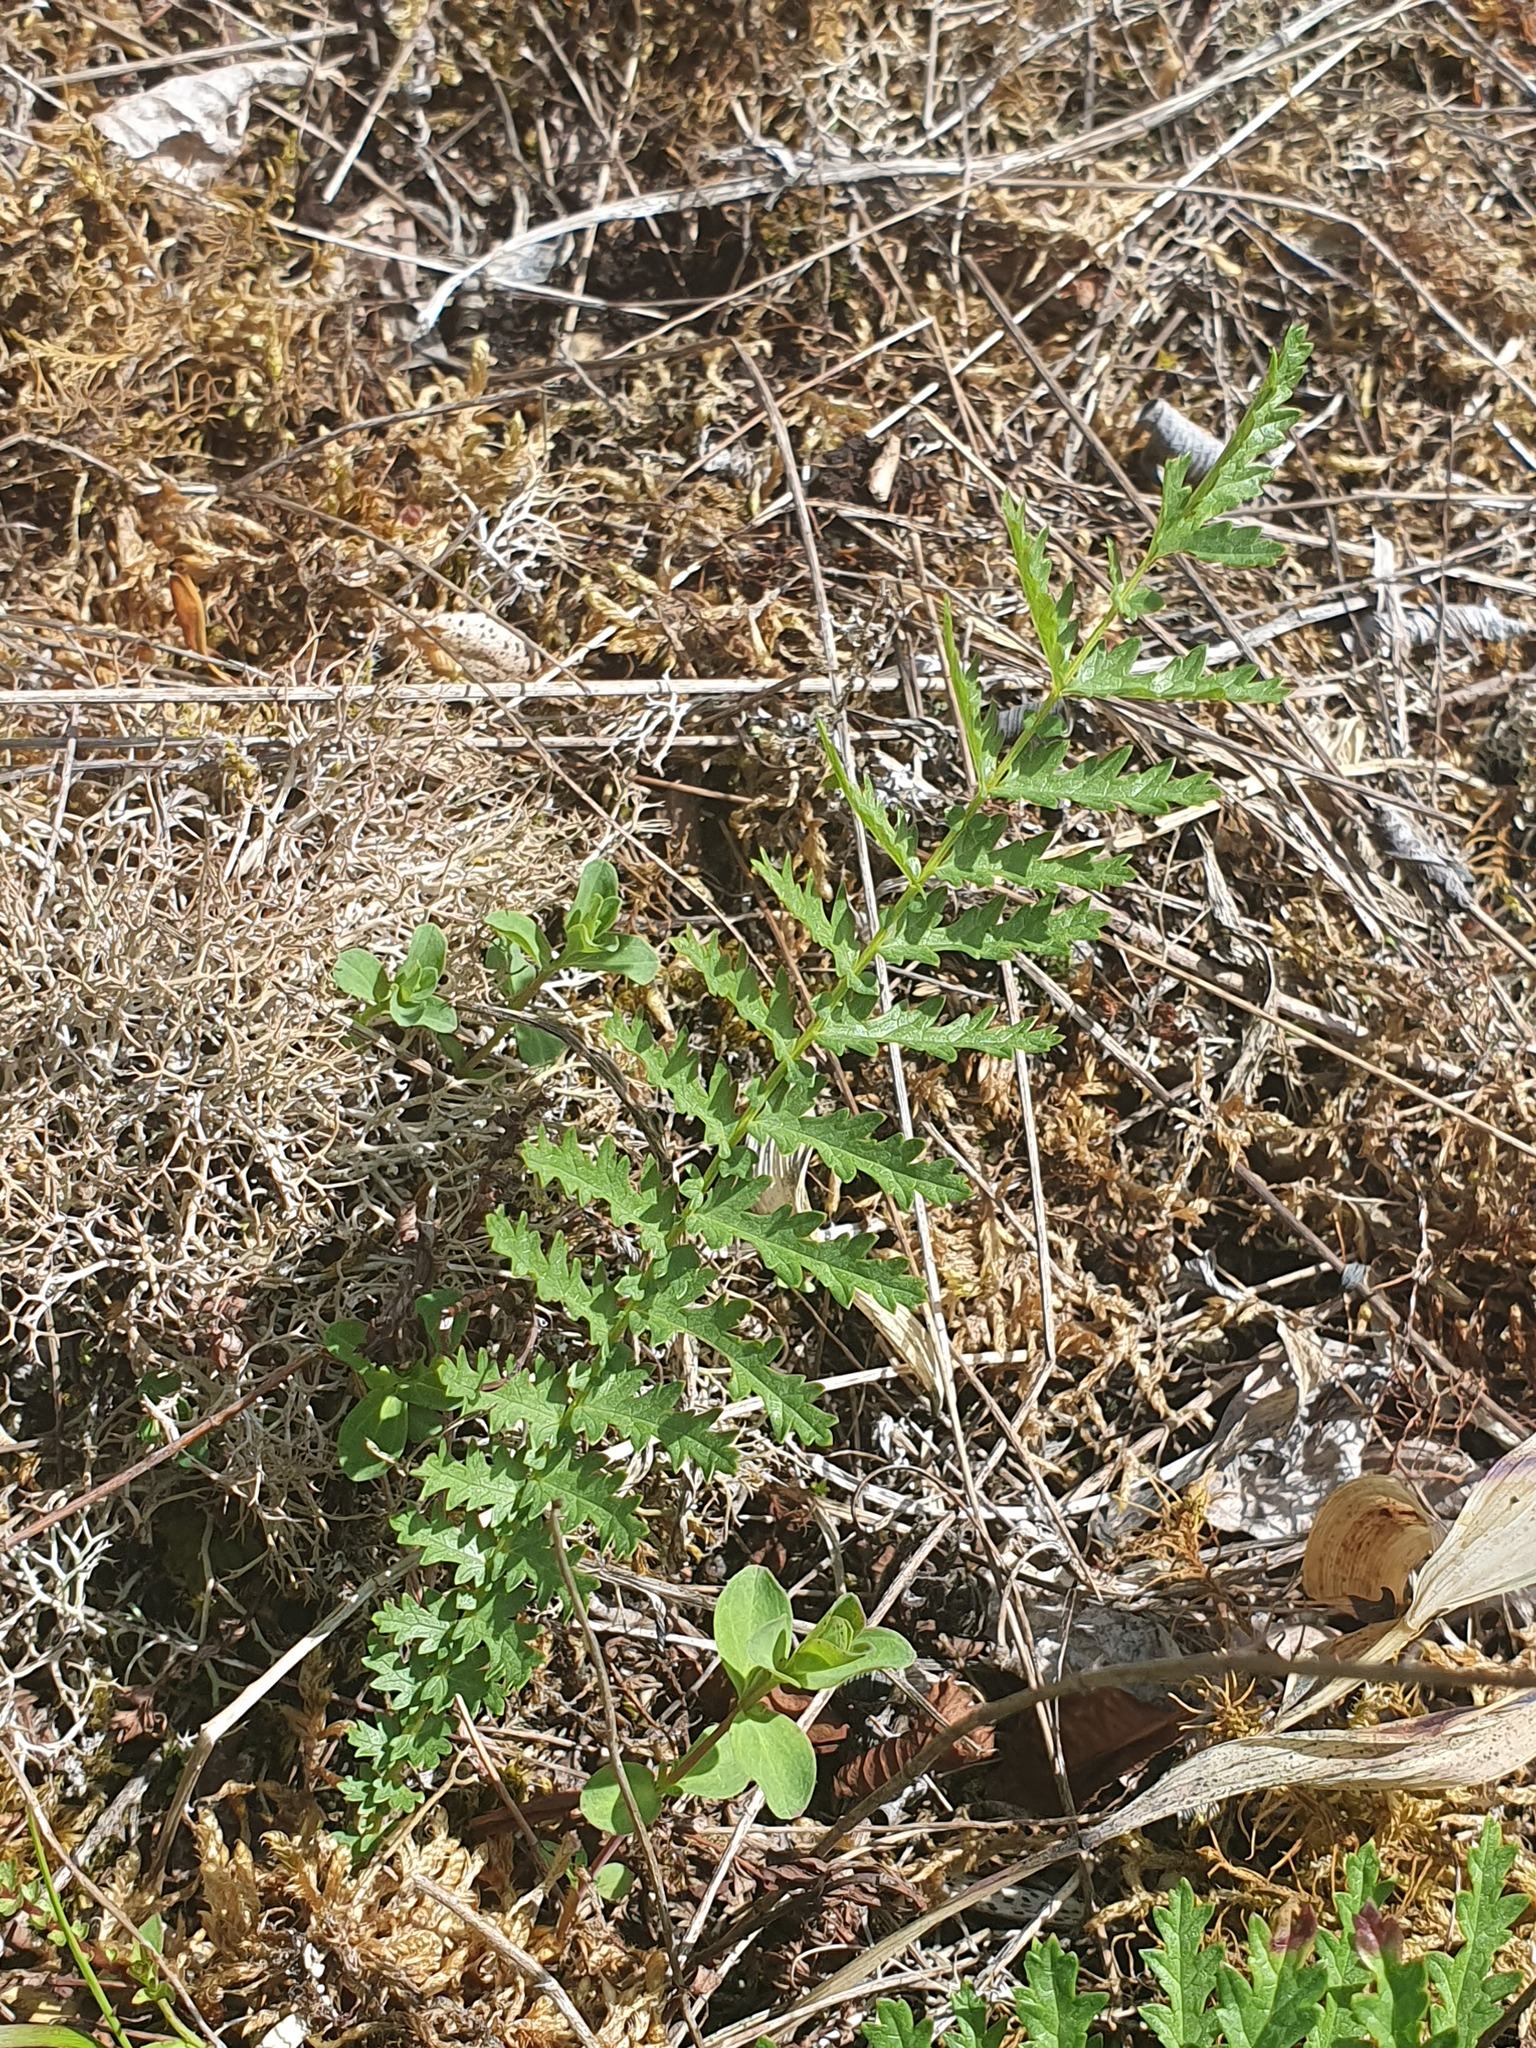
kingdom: Plantae
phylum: Tracheophyta
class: Magnoliopsida
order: Rosales
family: Rosaceae
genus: Filipendula
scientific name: Filipendula vulgaris
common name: Dropwort
